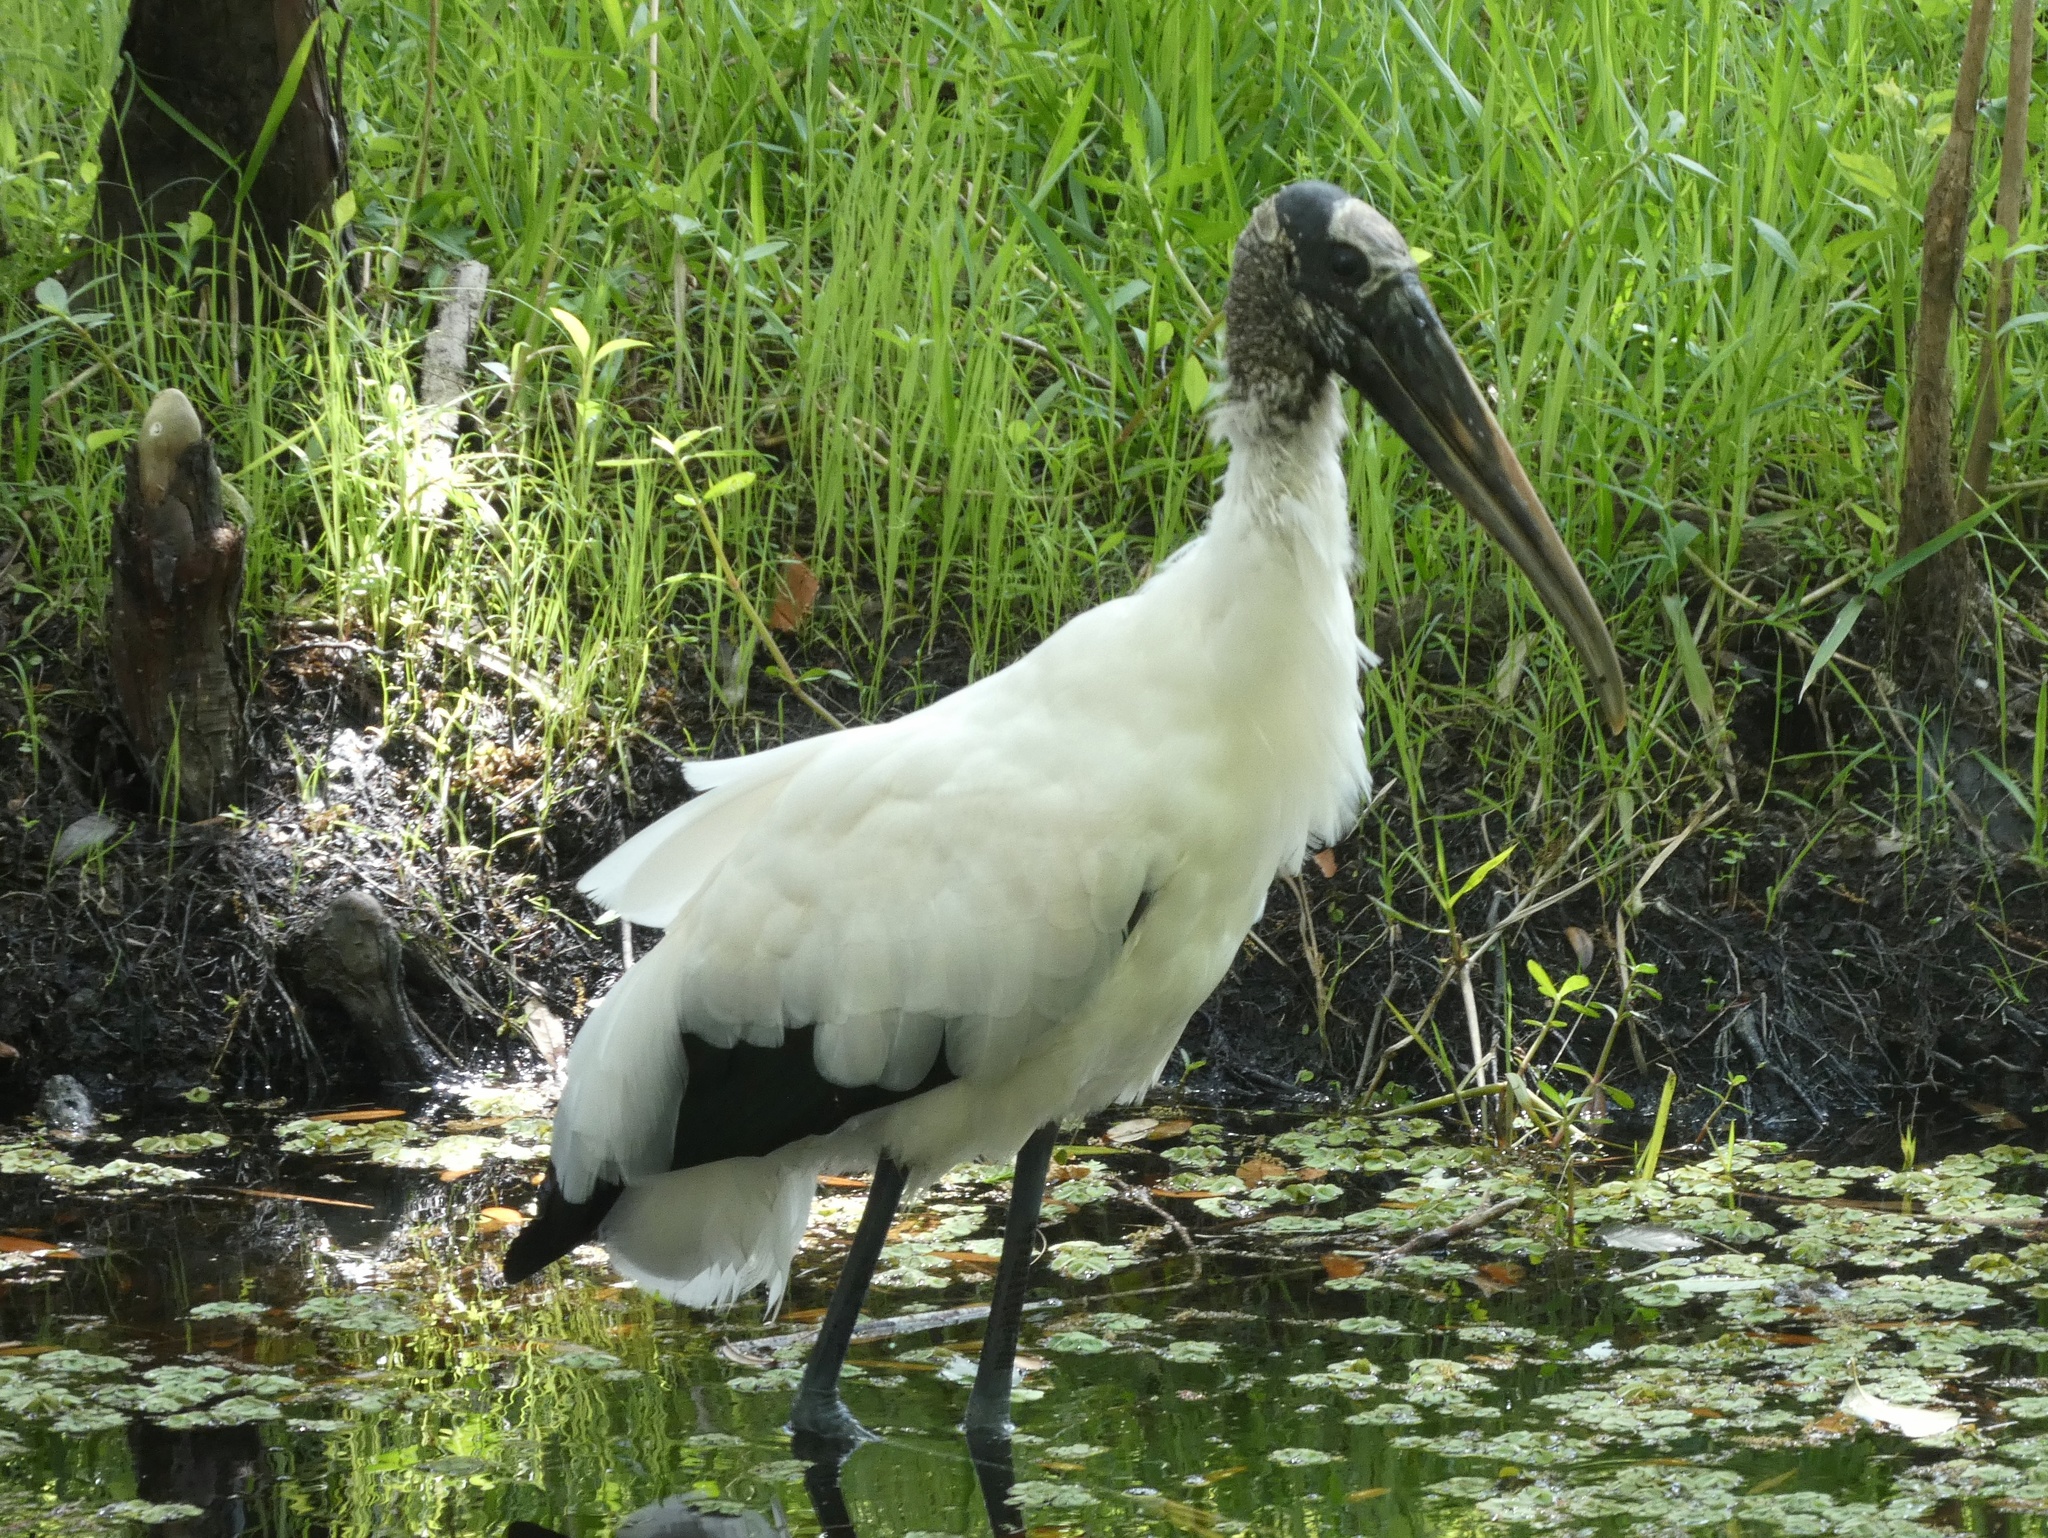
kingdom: Animalia
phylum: Chordata
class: Aves
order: Ciconiiformes
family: Ciconiidae
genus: Mycteria
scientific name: Mycteria americana
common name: Wood stork
